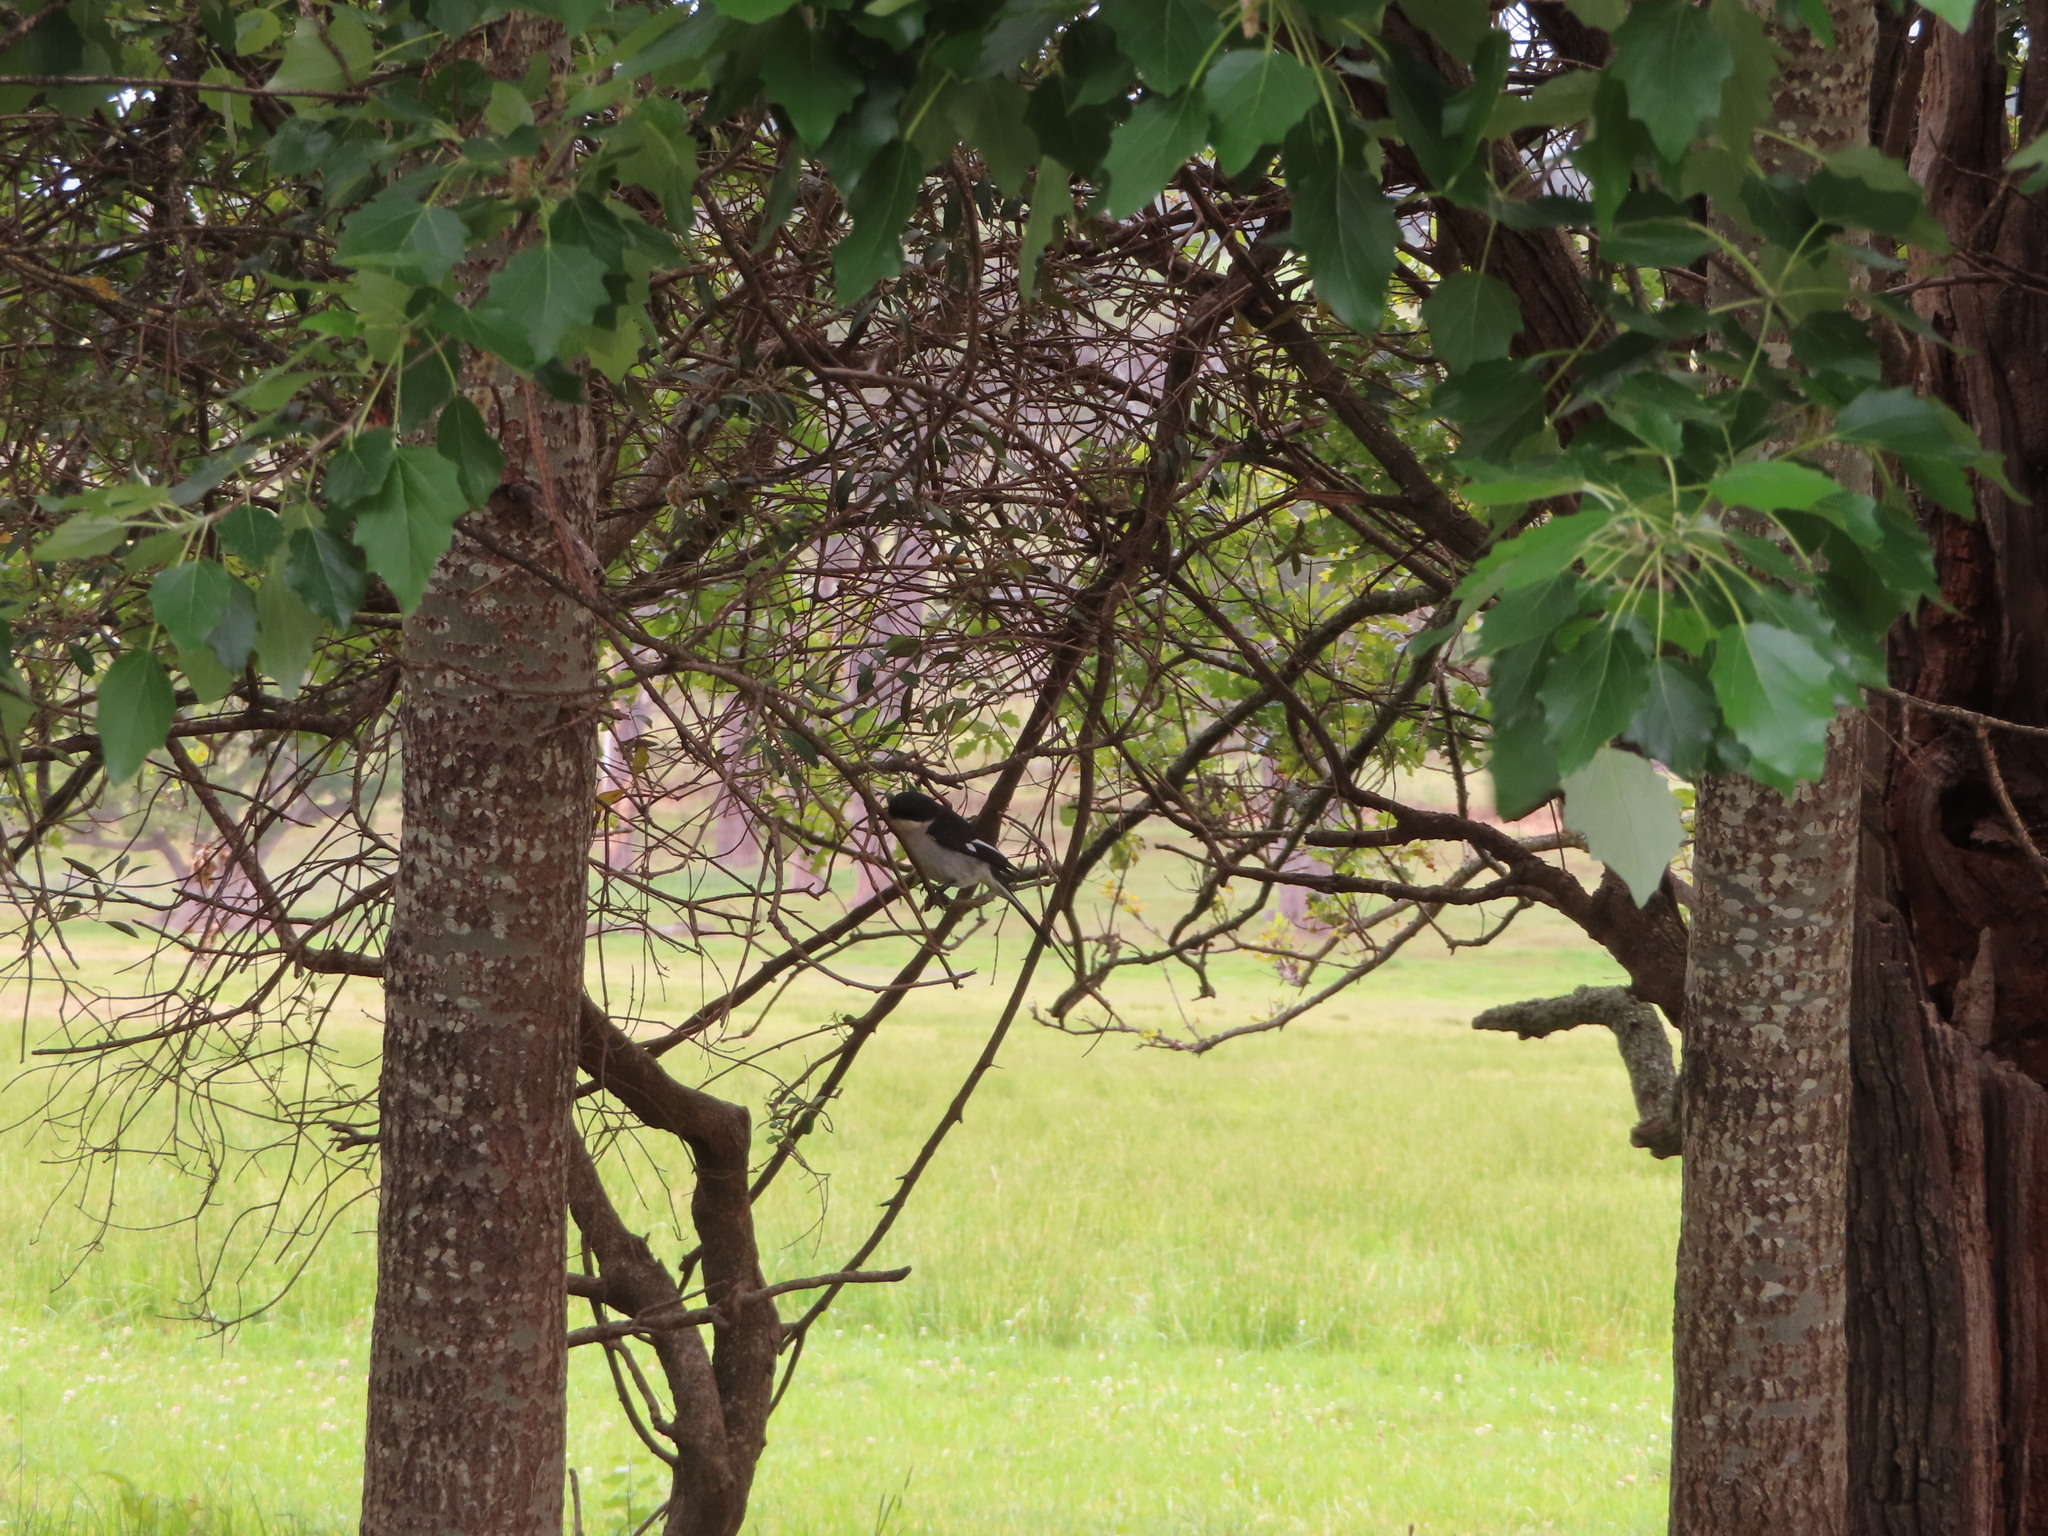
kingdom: Animalia
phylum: Chordata
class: Aves
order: Passeriformes
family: Muscicapidae
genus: Sigelus
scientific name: Sigelus silens
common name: Fiscal flycatcher
